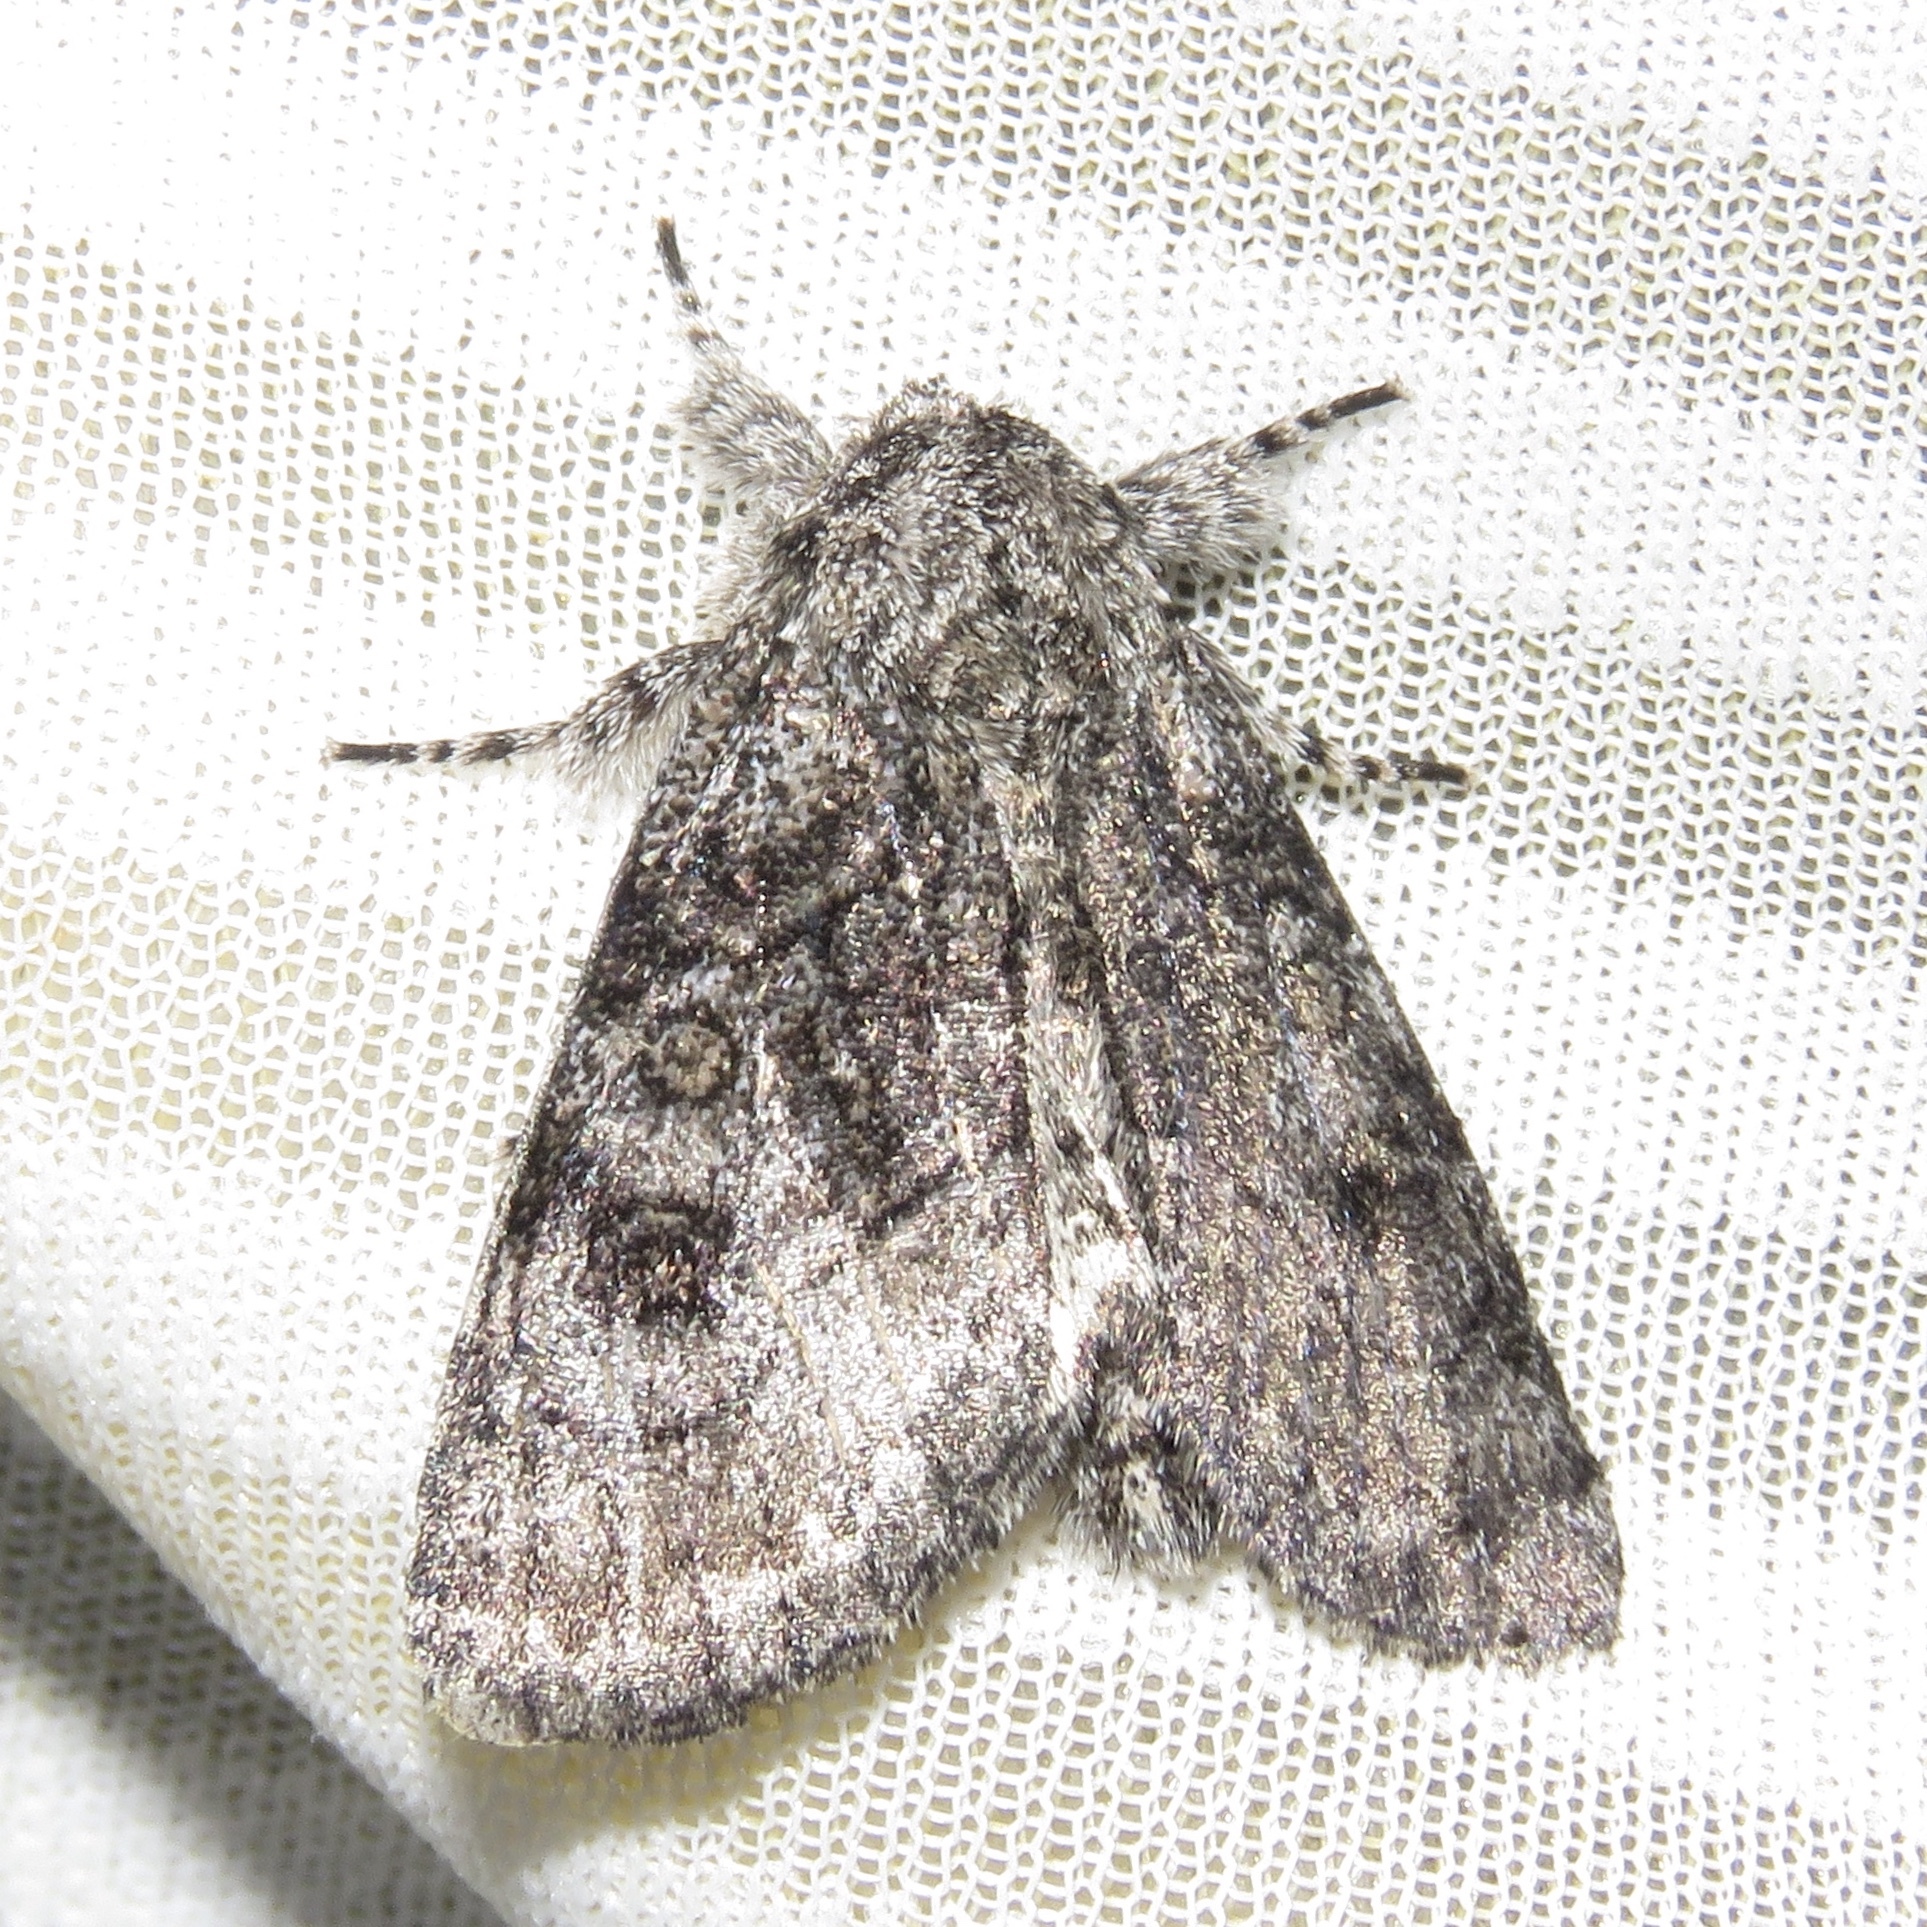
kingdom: Animalia
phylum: Arthropoda
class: Insecta
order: Lepidoptera
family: Noctuidae
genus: Raphia
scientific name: Raphia frater
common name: Brother
